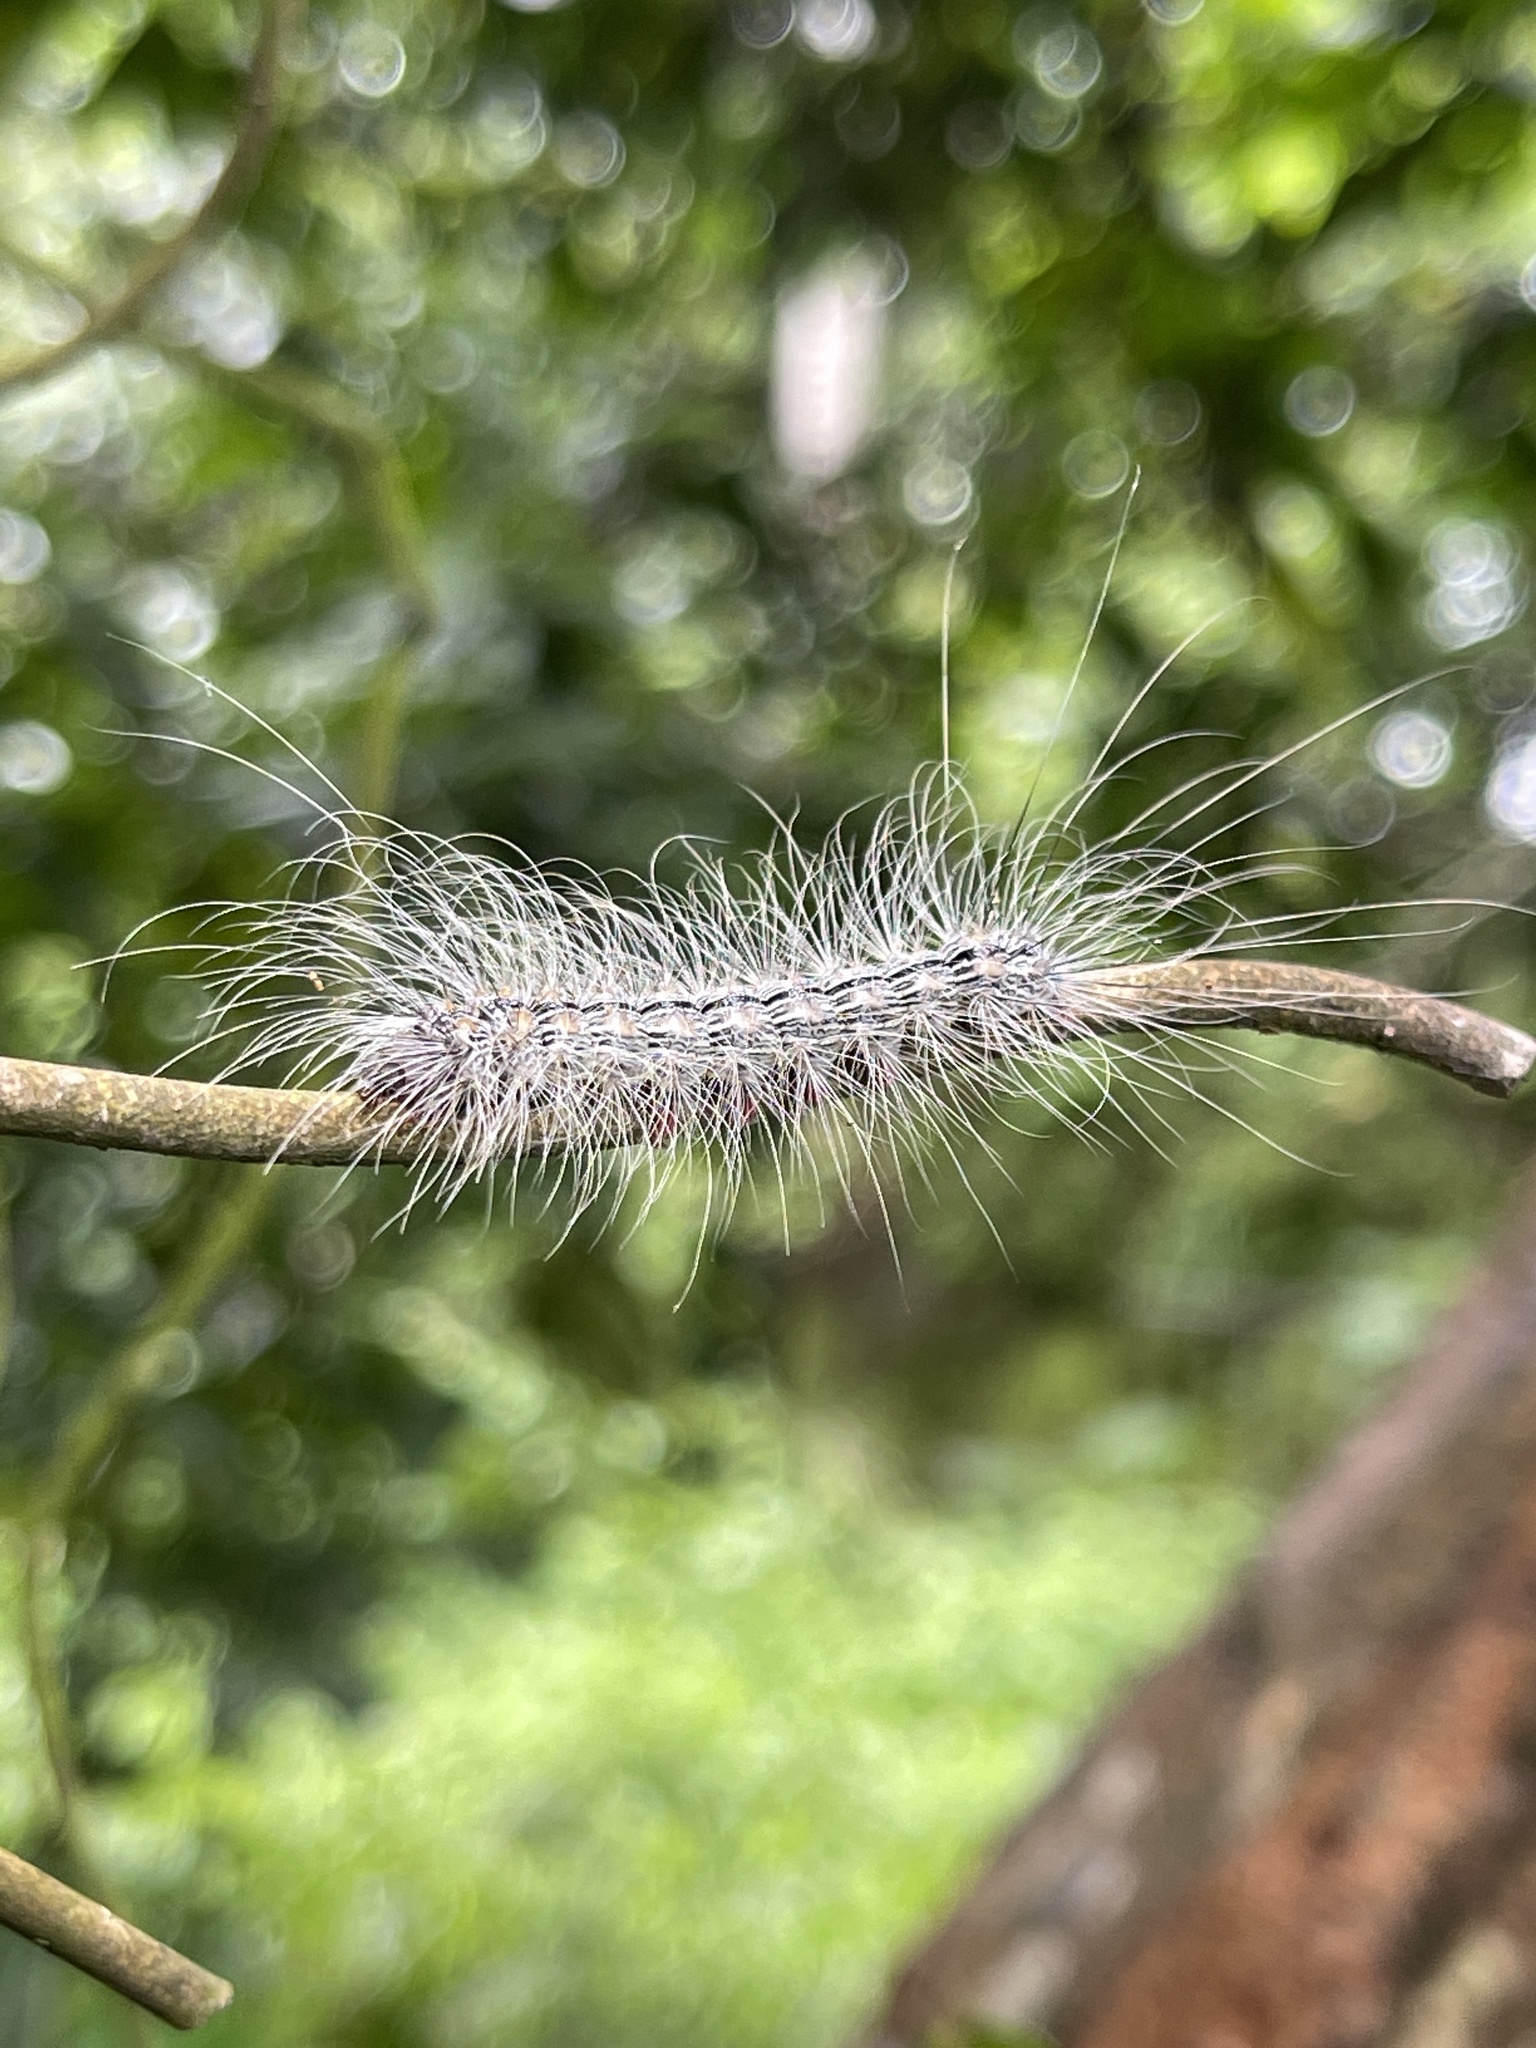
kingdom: Animalia
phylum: Arthropoda
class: Insecta
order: Lepidoptera
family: Erebidae
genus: Chrysaeglia
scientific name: Chrysaeglia magnifica
